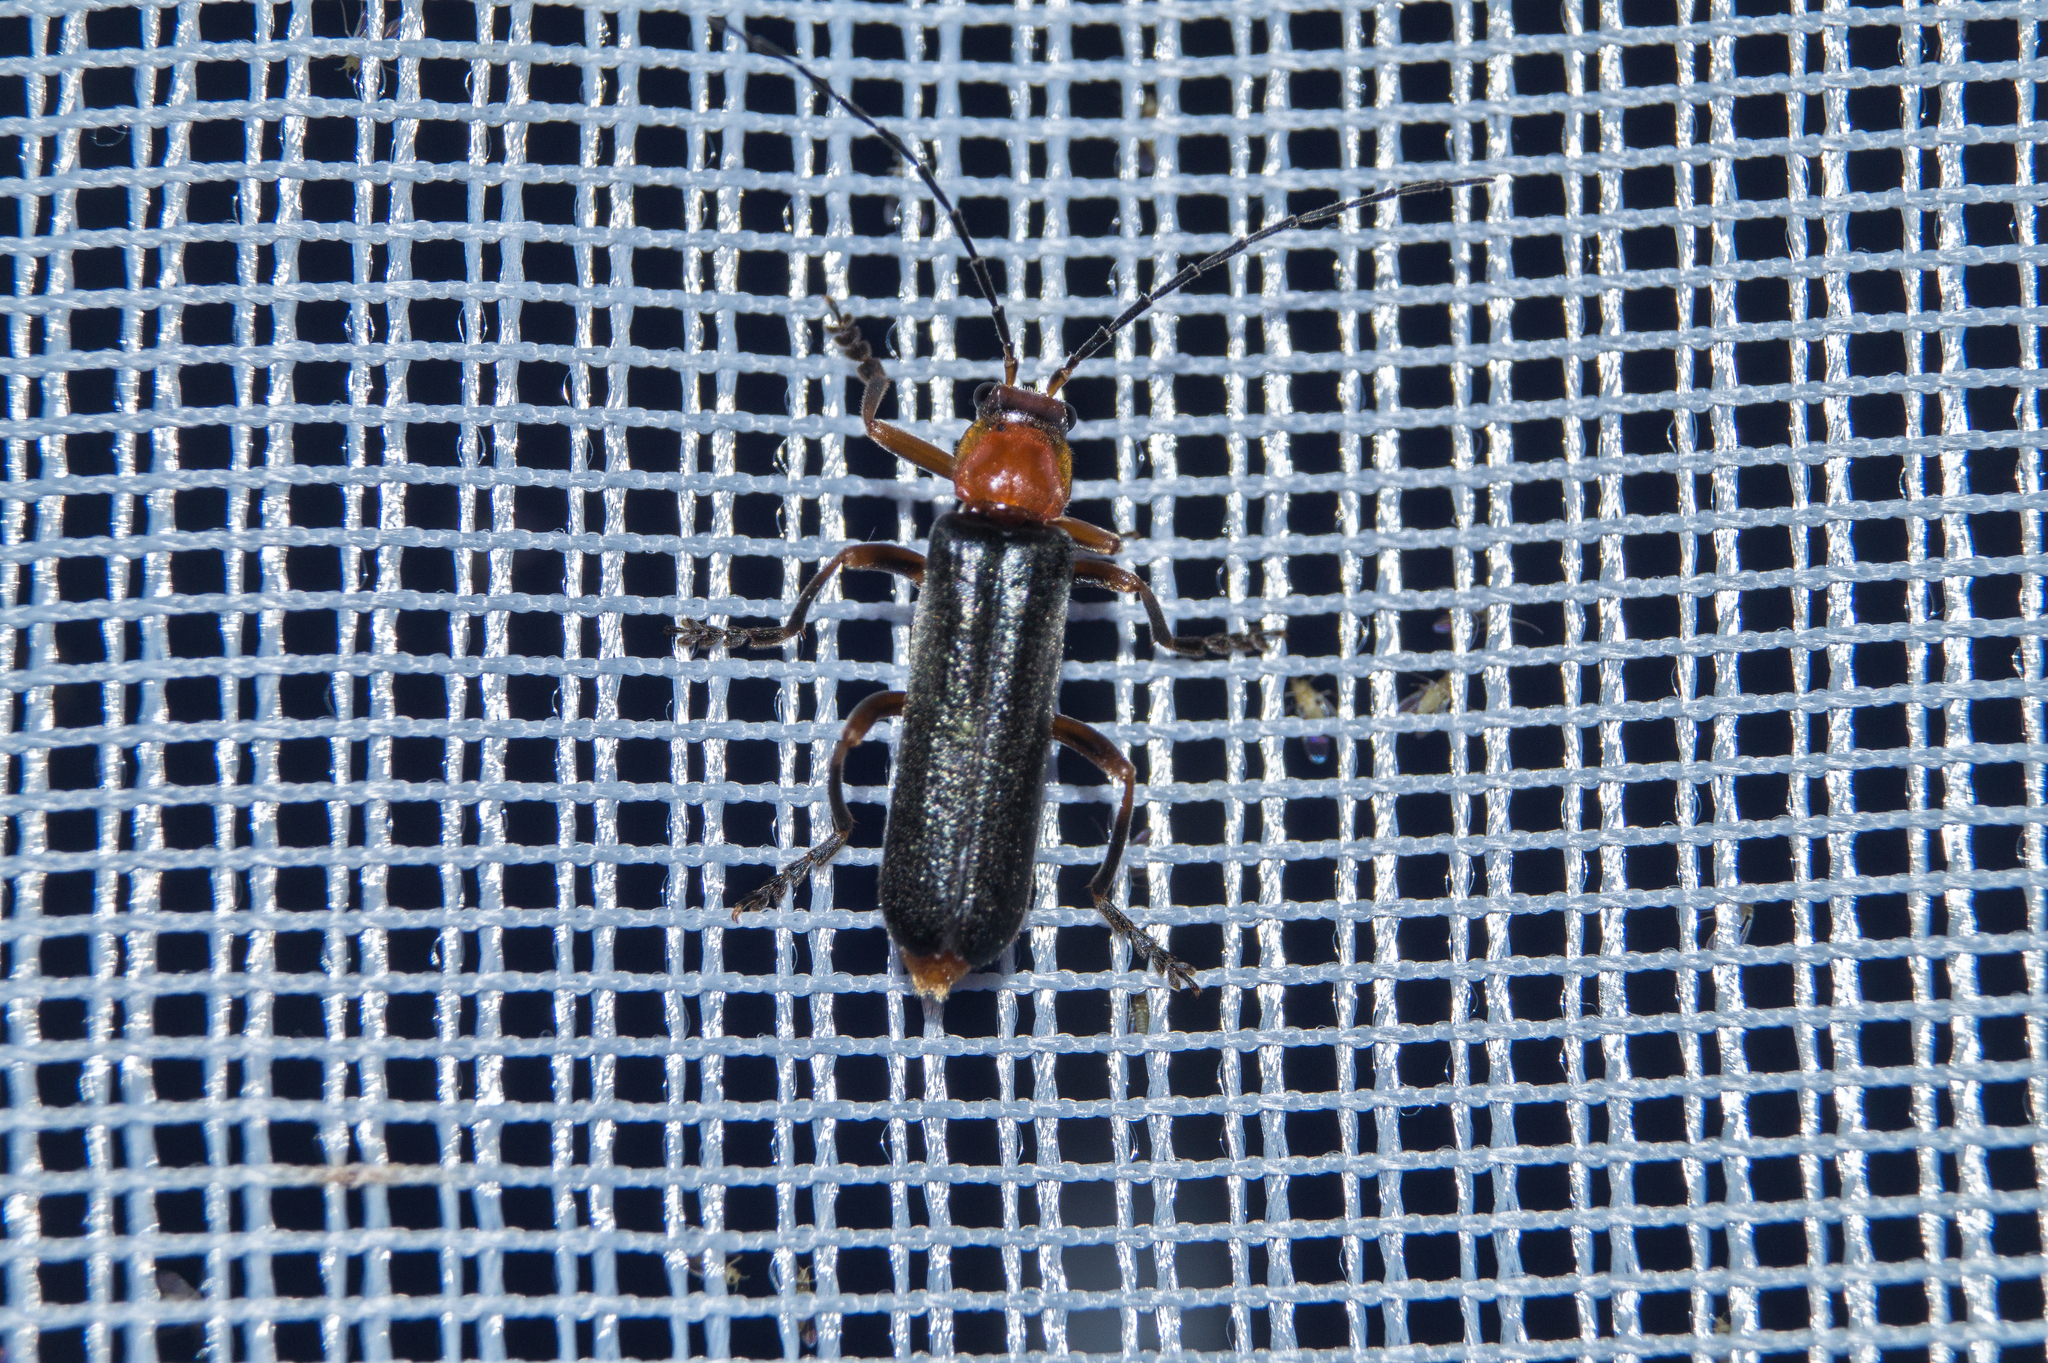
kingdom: Animalia
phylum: Arthropoda
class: Insecta
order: Coleoptera
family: Cantharidae
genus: Ancistronycha
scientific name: Ancistronycha abdominalis
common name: Blue soldier beetle
